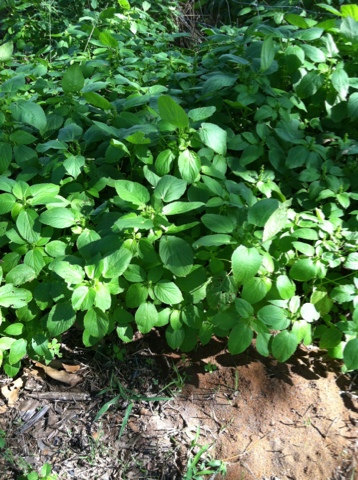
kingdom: Plantae
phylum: Tracheophyta
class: Magnoliopsida
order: Malpighiales
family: Euphorbiaceae
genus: Acalypha
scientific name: Acalypha ostryifolia
